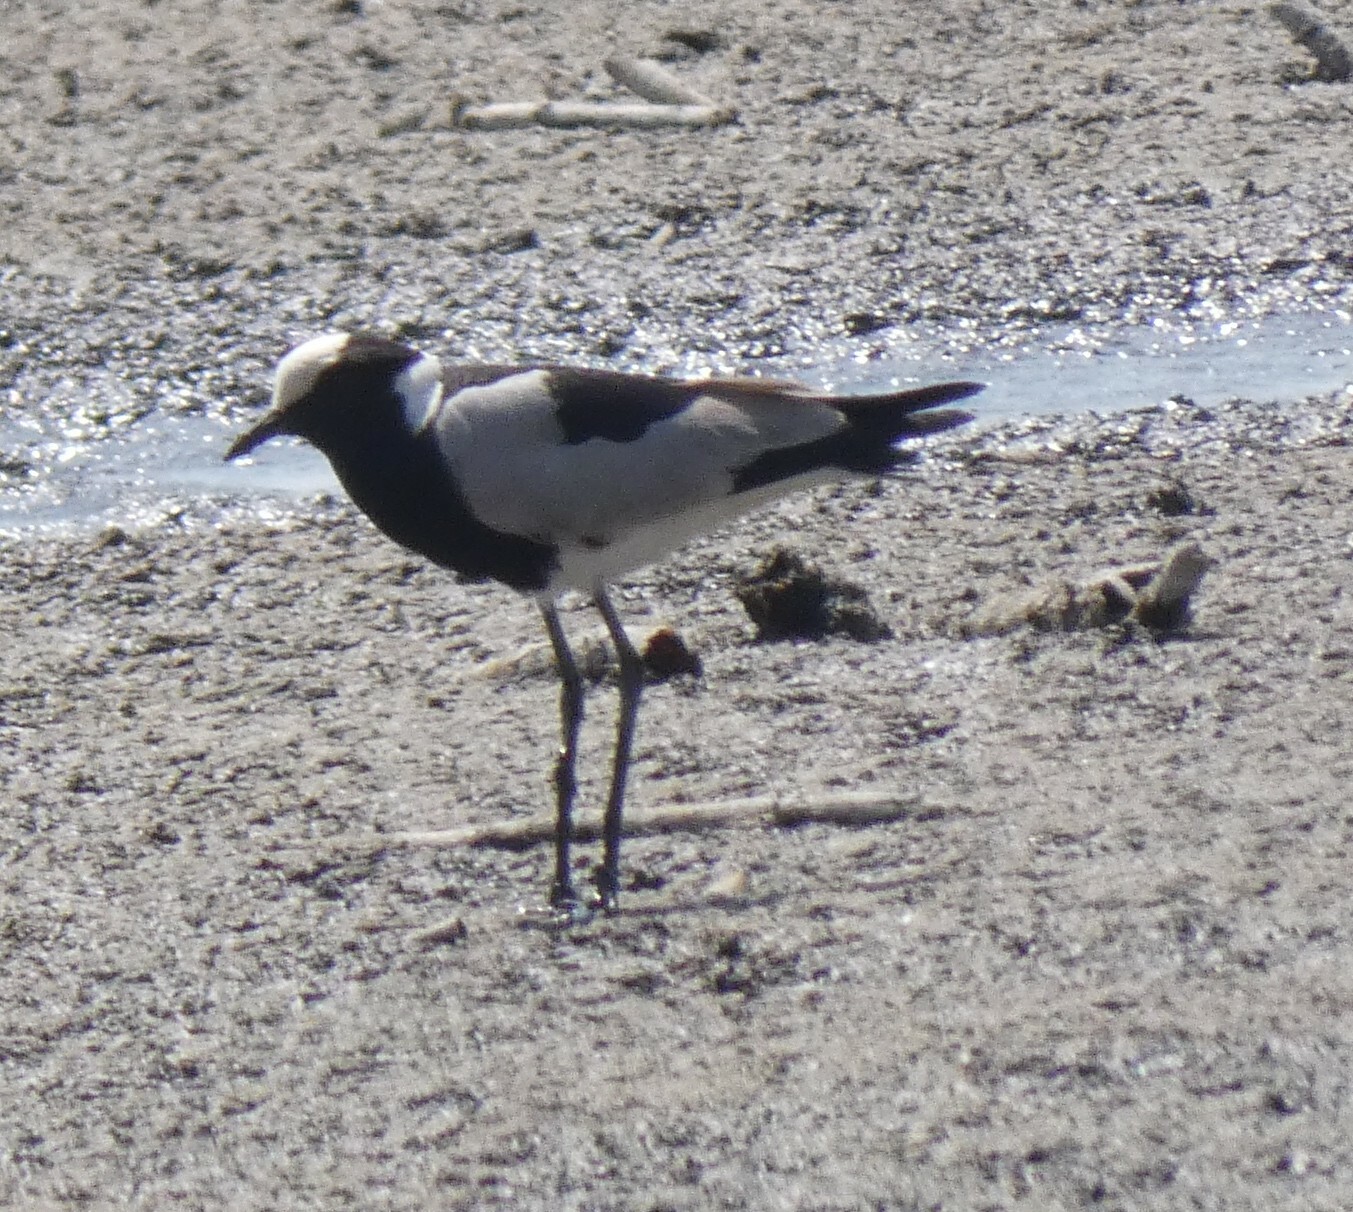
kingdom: Animalia
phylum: Chordata
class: Aves
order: Charadriiformes
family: Charadriidae
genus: Vanellus
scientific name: Vanellus armatus
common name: Blacksmith lapwing
